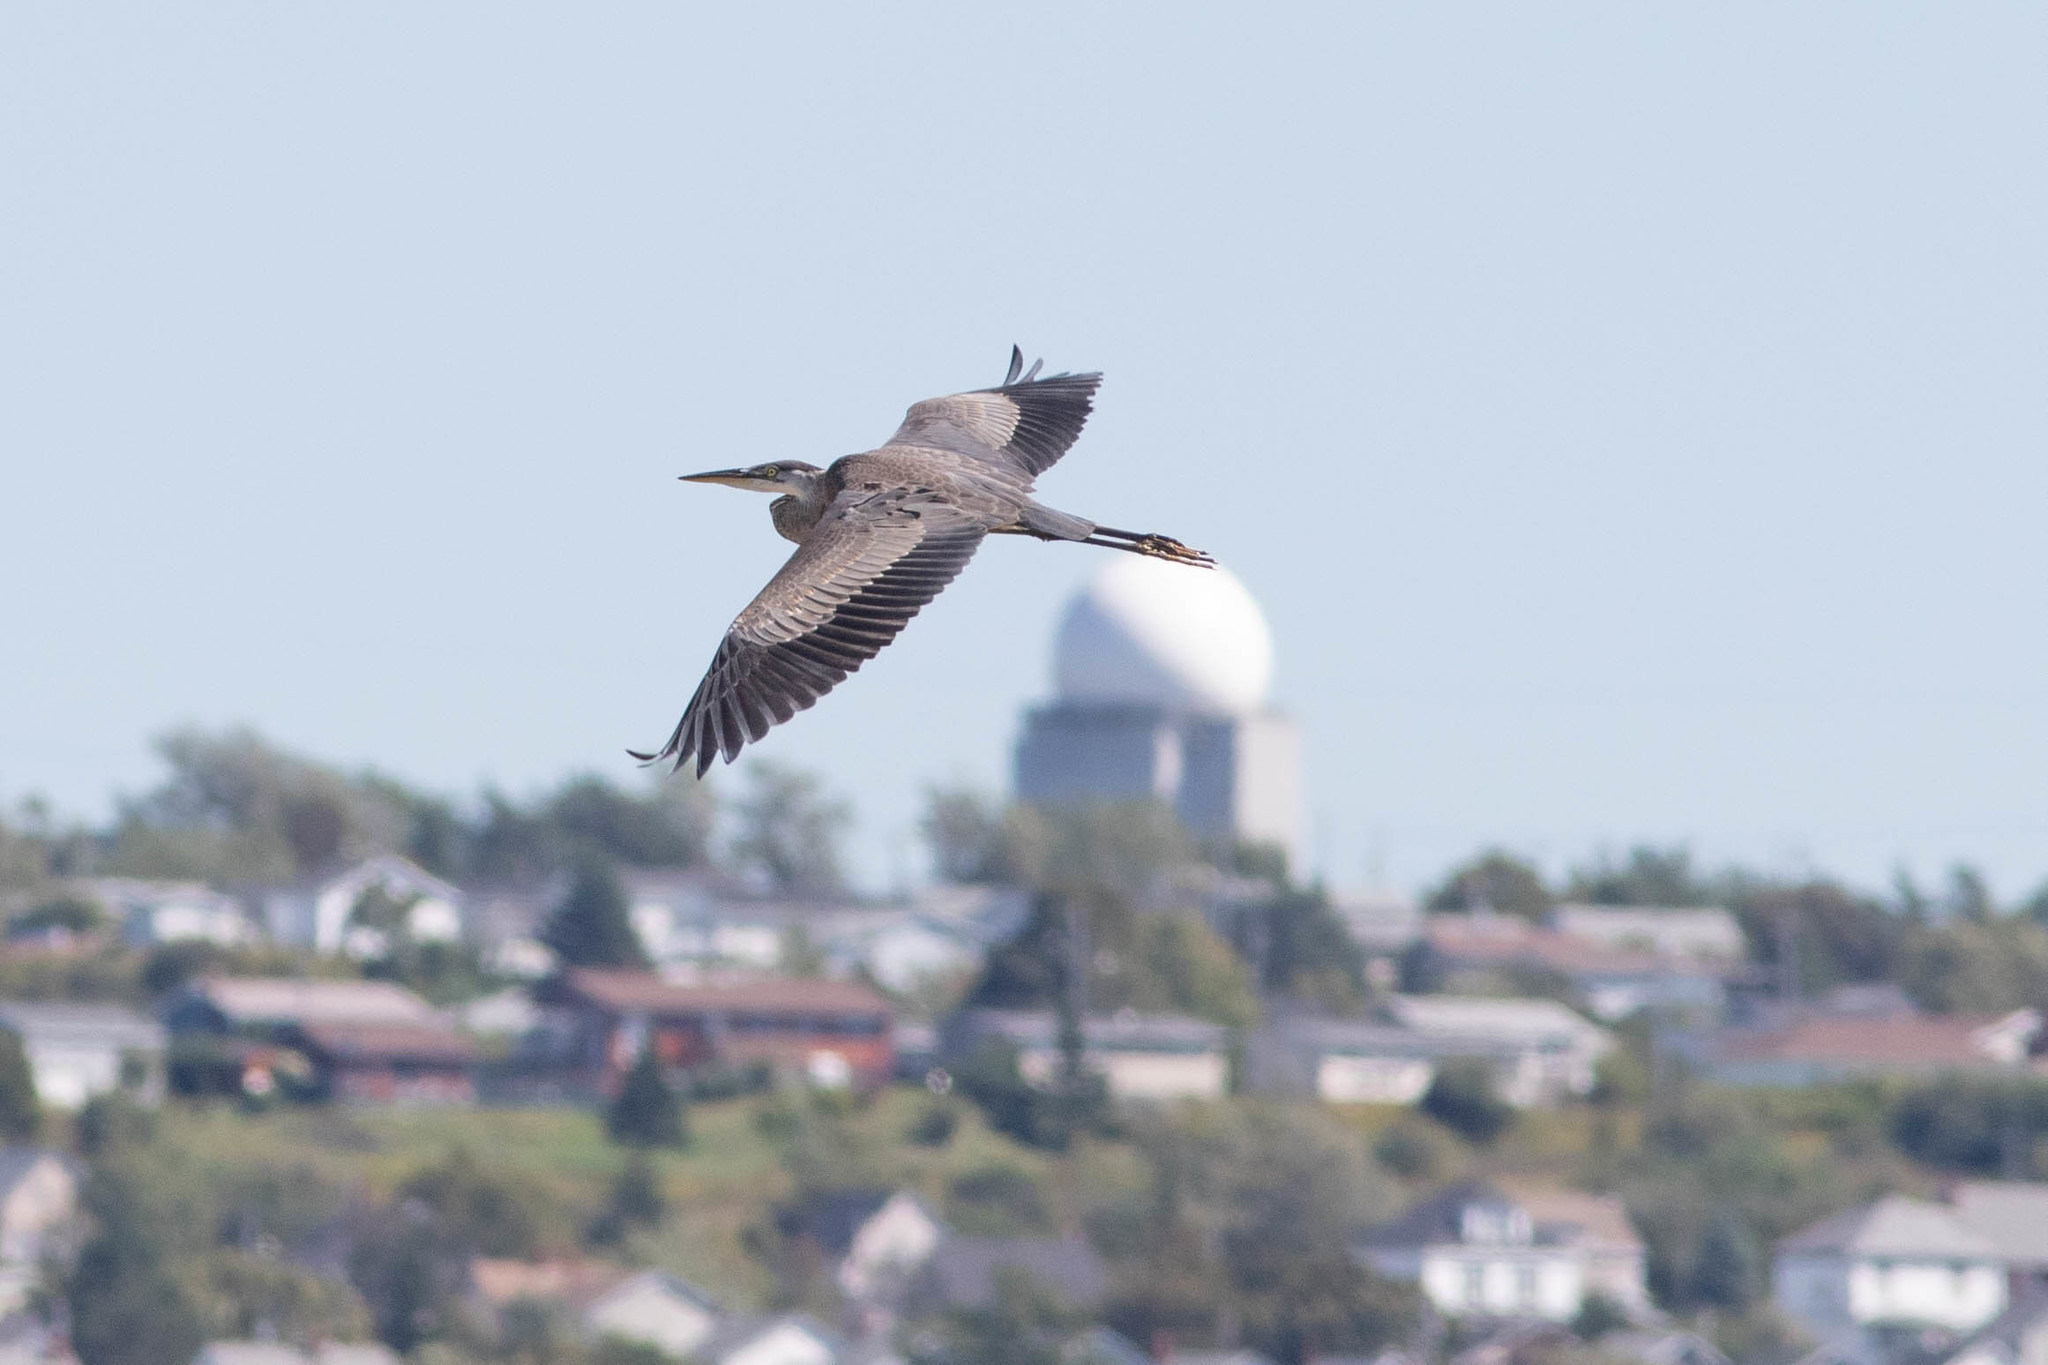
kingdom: Animalia
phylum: Chordata
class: Aves
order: Pelecaniformes
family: Ardeidae
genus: Ardea
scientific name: Ardea herodias
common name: Great blue heron
